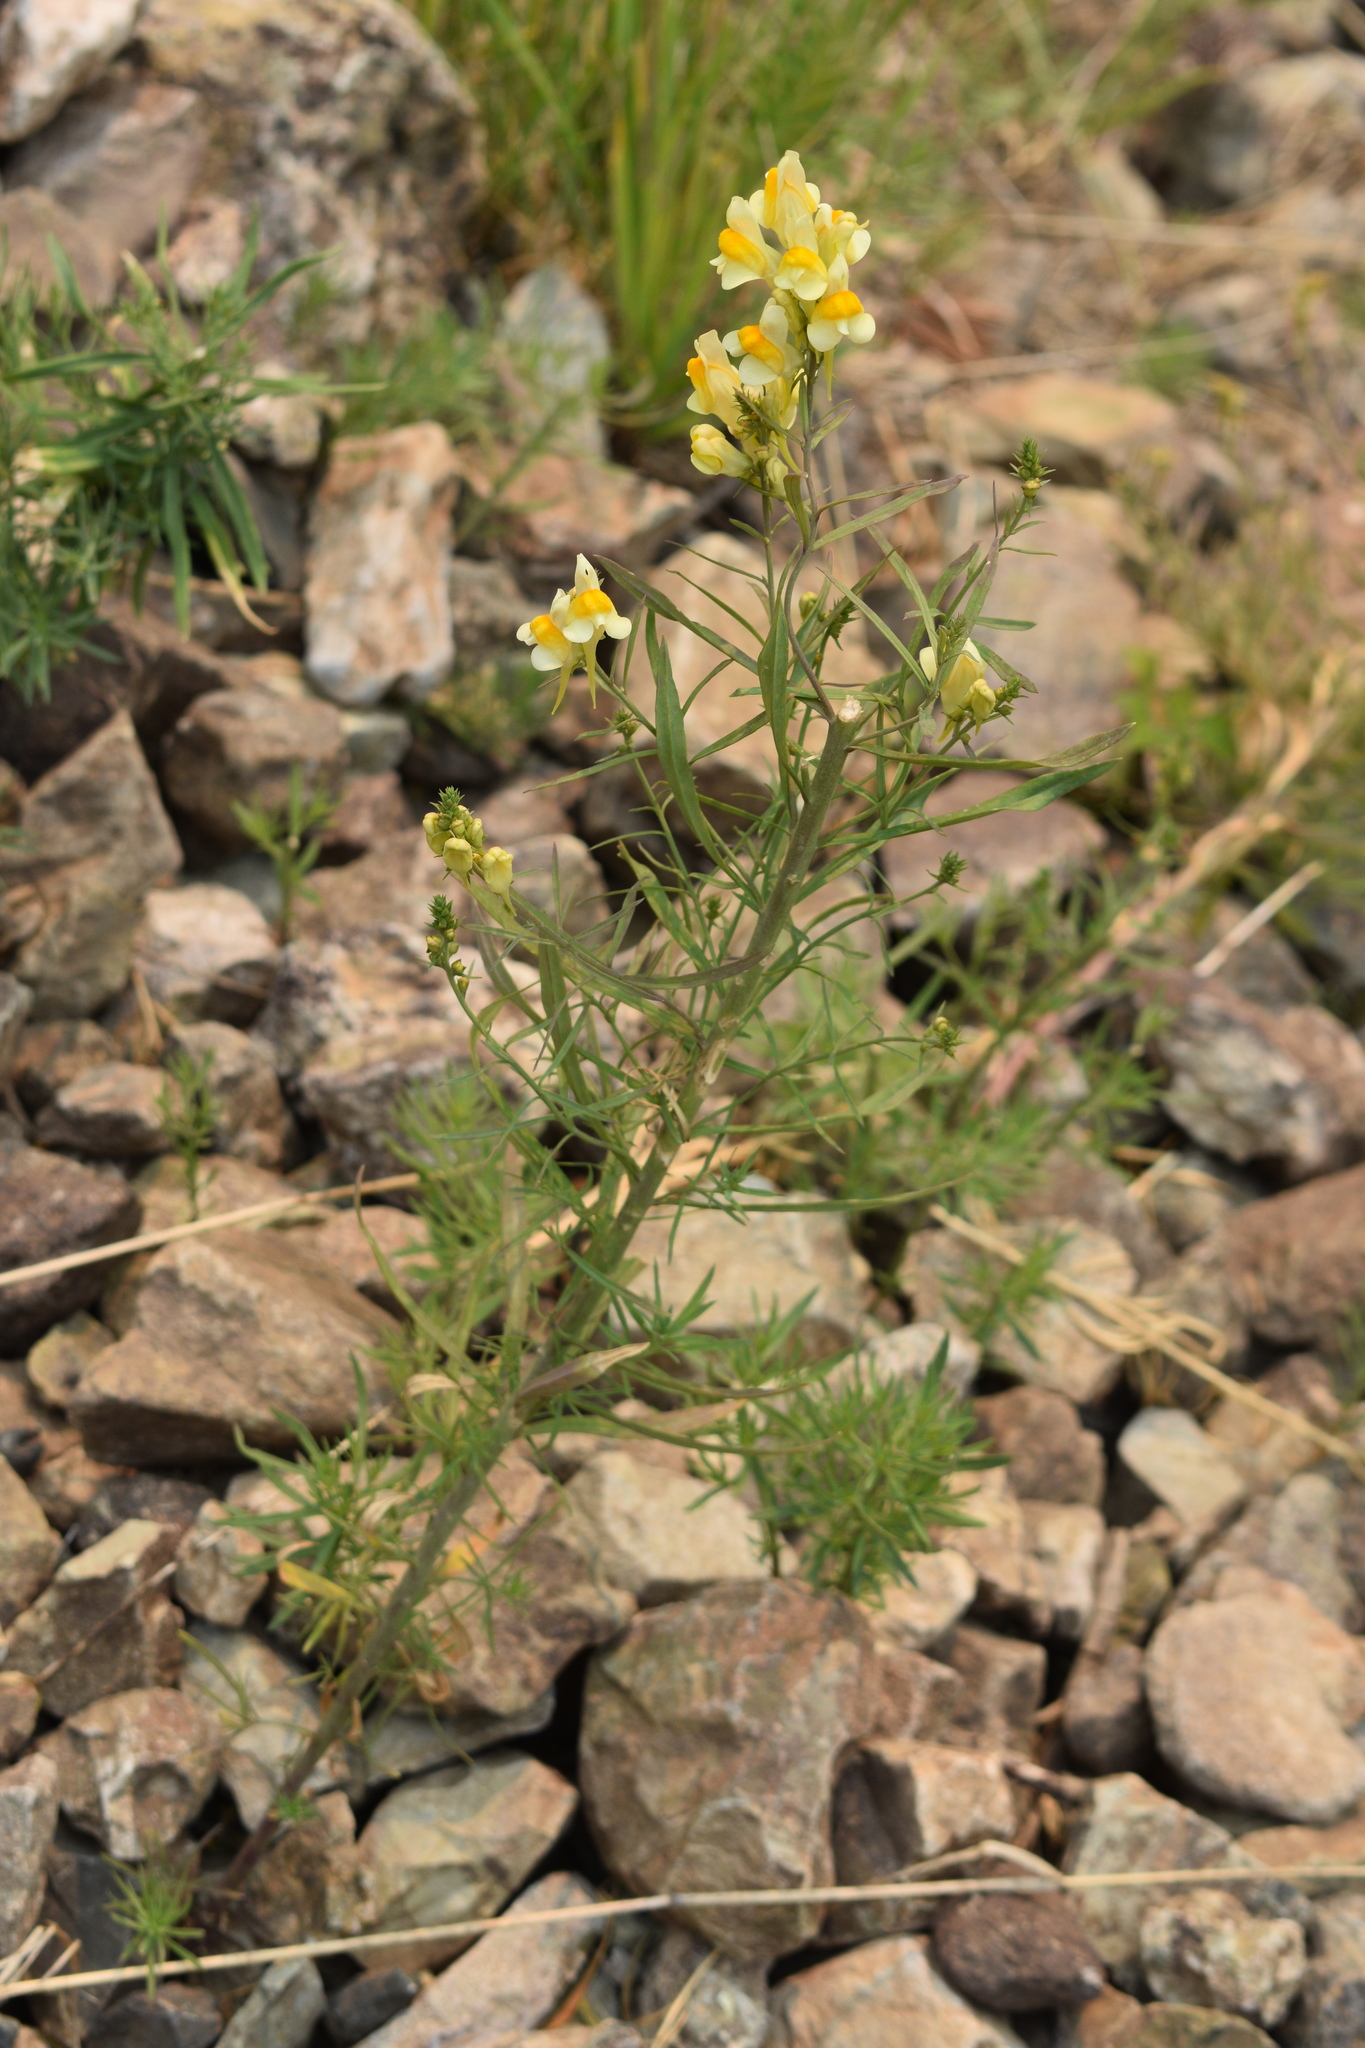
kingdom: Plantae
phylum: Tracheophyta
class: Magnoliopsida
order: Lamiales
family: Plantaginaceae
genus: Linaria
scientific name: Linaria vulgaris
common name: Butter and eggs
